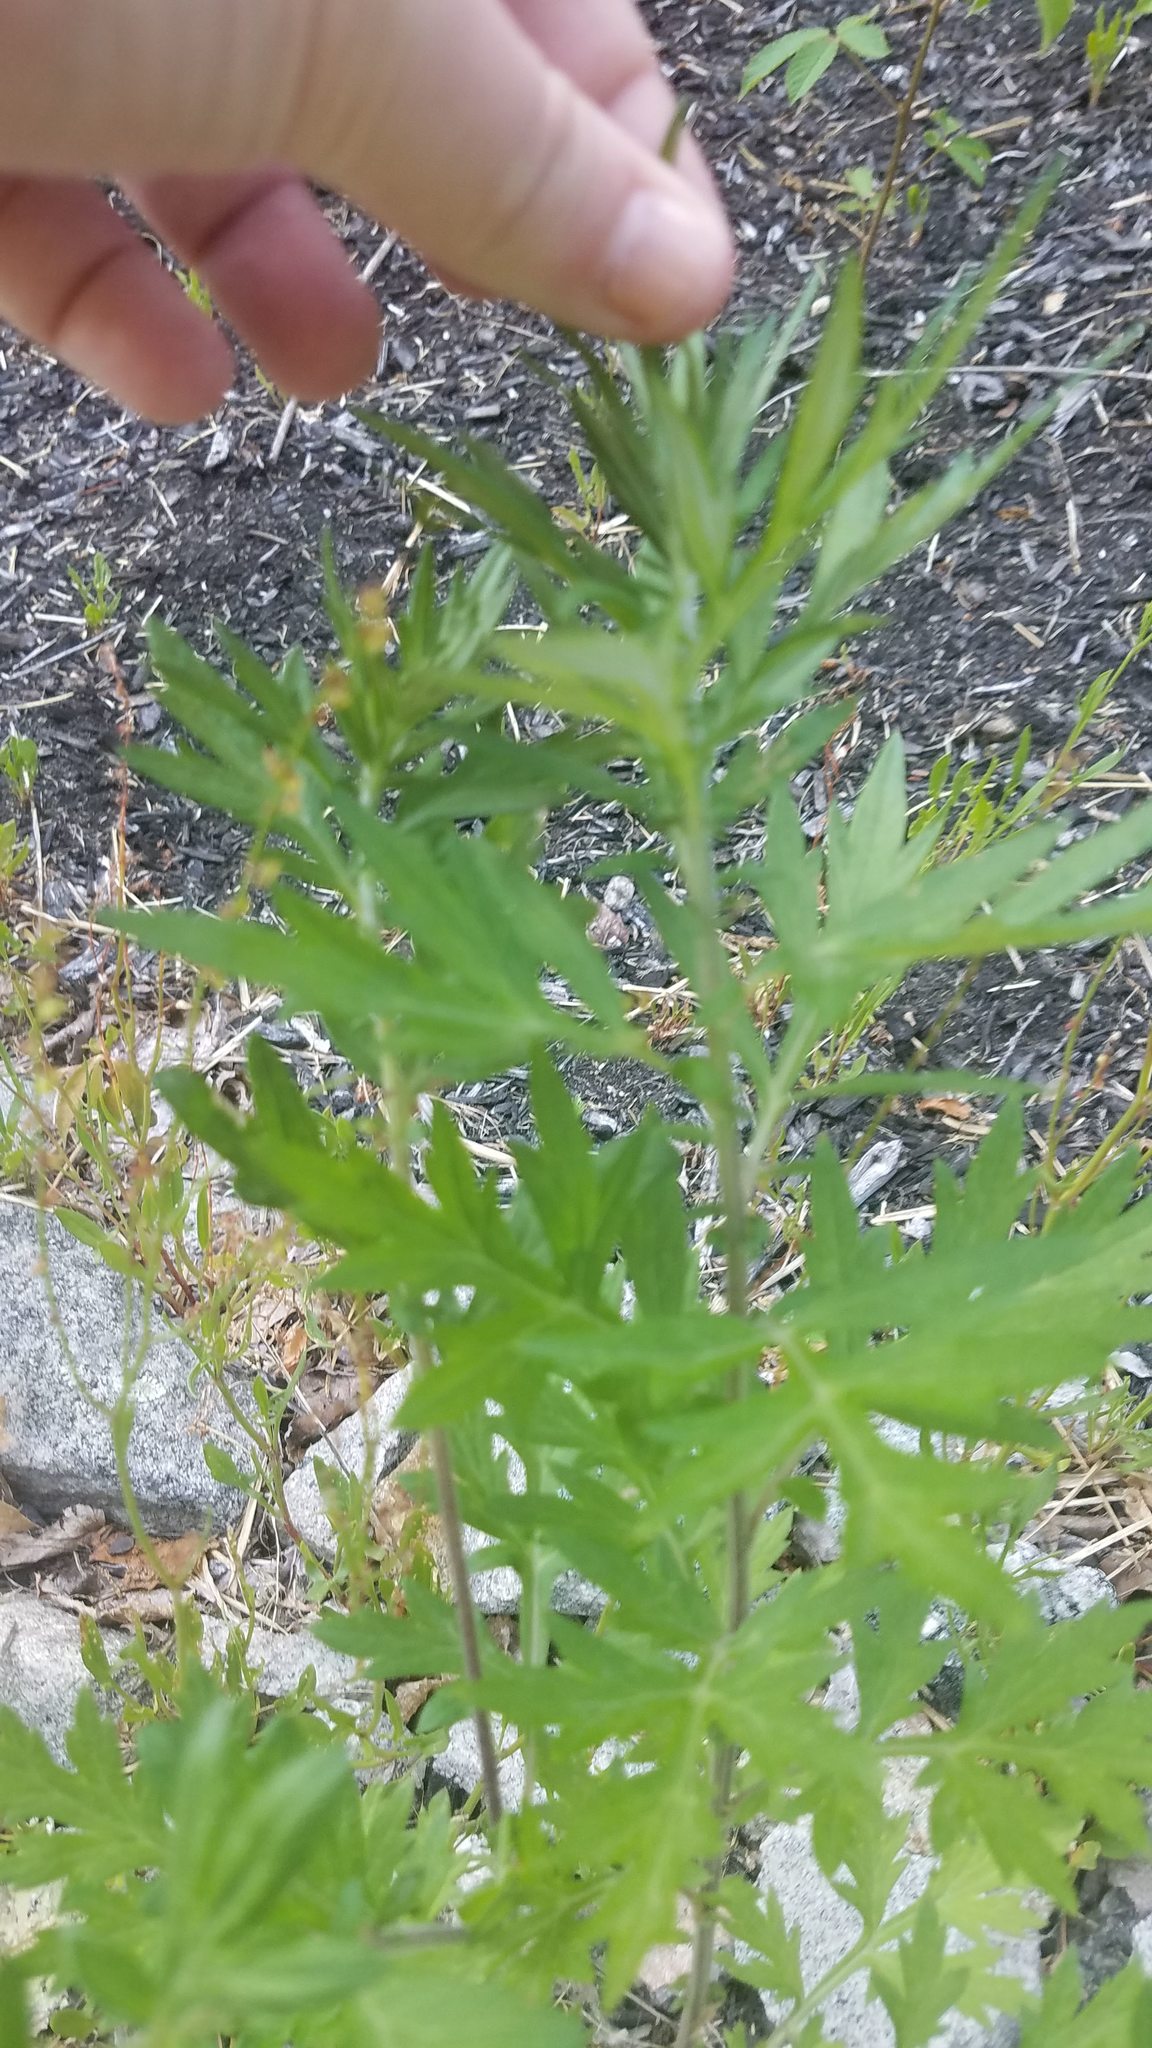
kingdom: Plantae
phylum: Tracheophyta
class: Magnoliopsida
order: Asterales
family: Asteraceae
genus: Artemisia
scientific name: Artemisia vulgaris
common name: Mugwort
